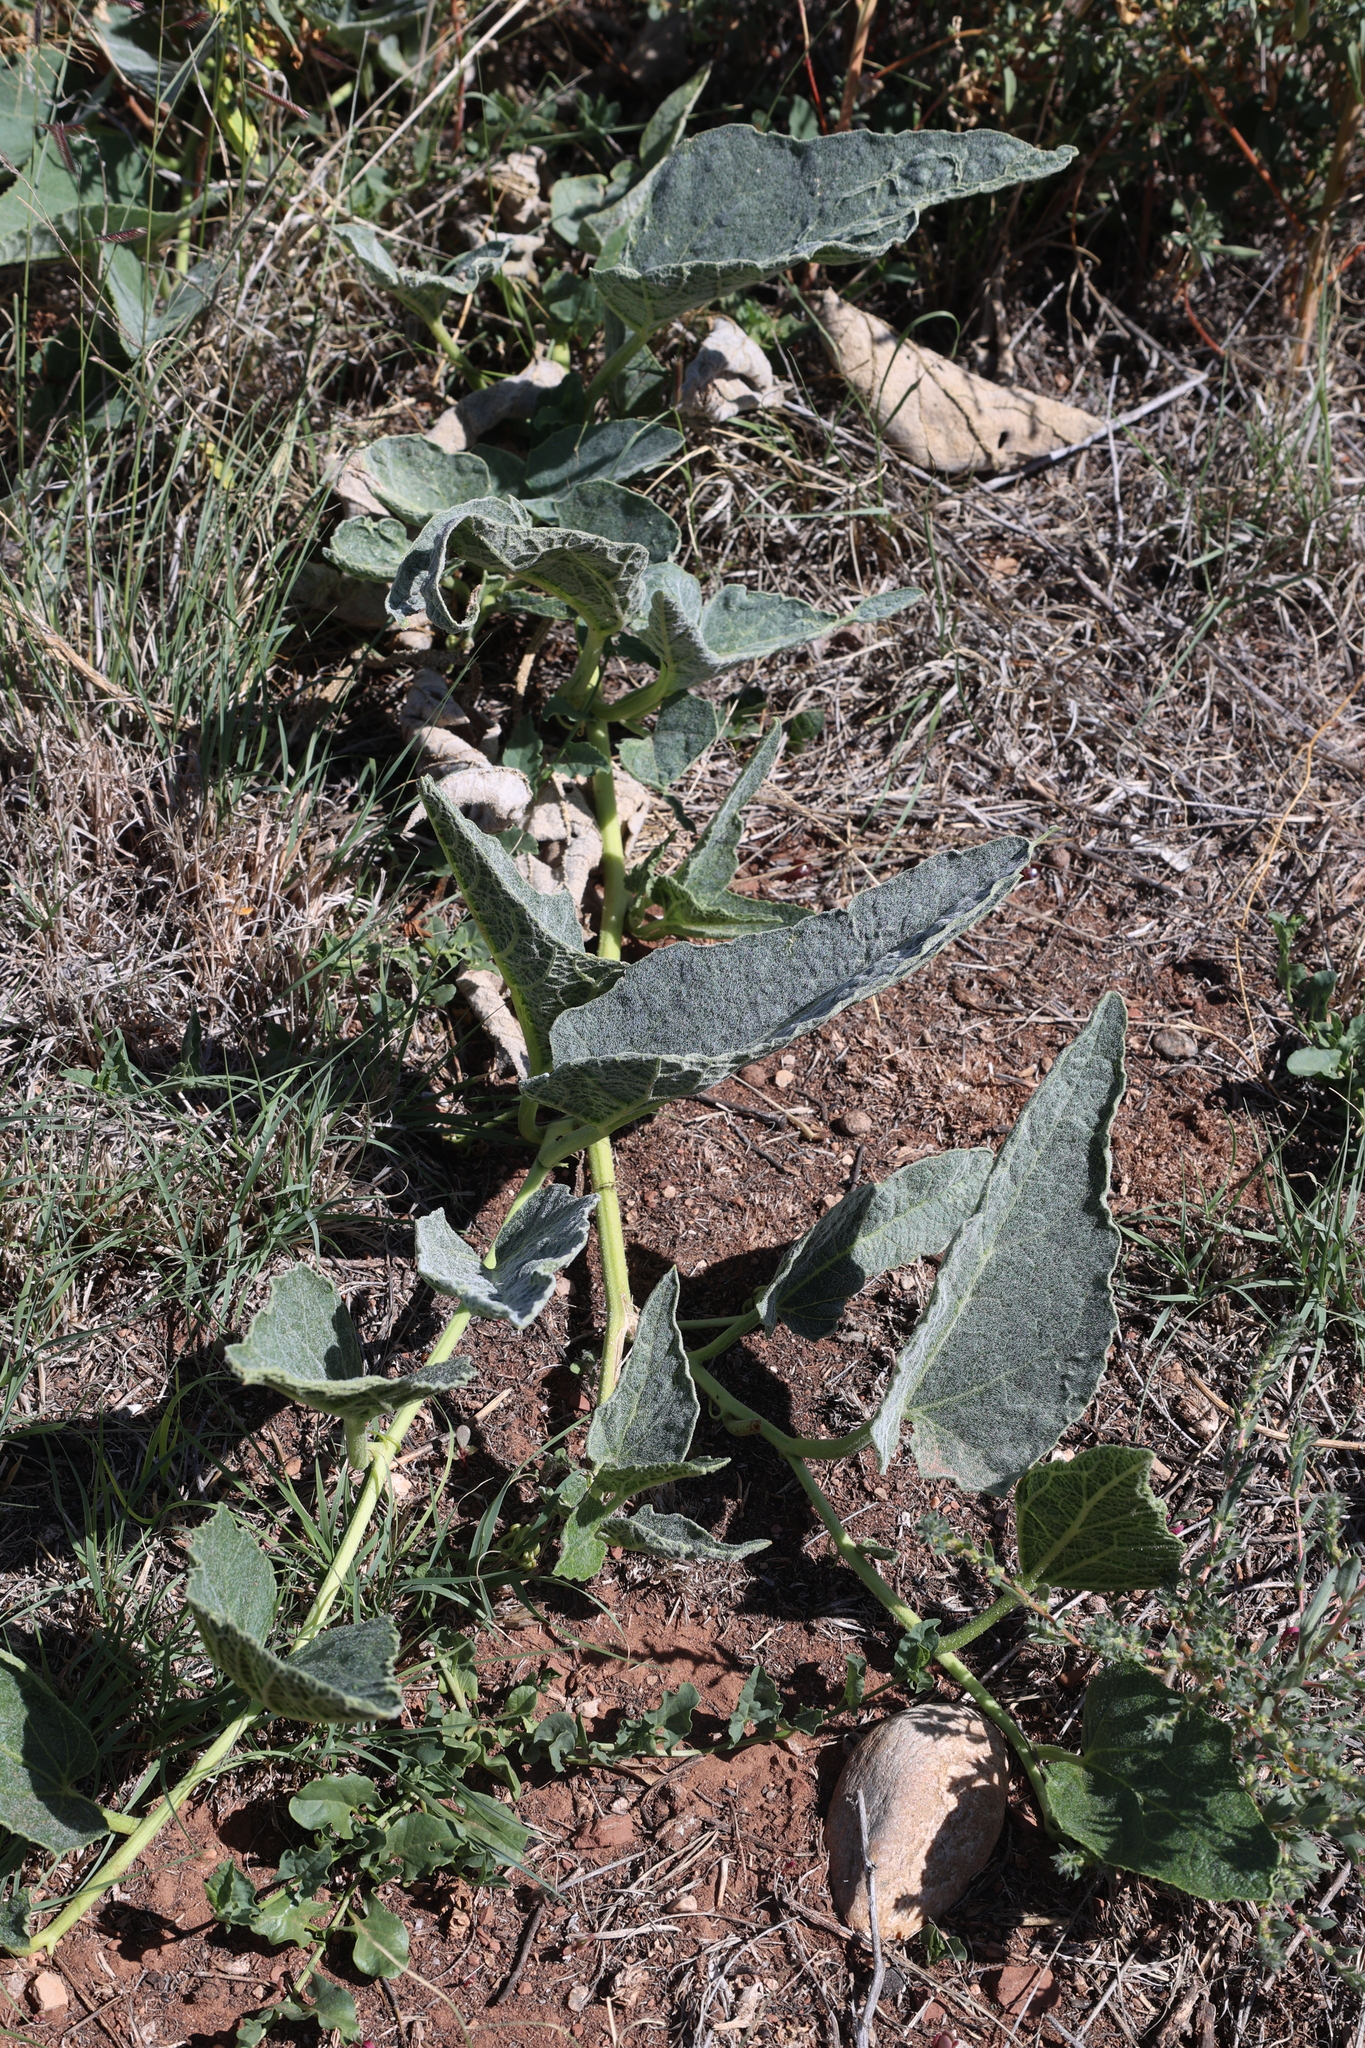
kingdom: Plantae
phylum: Tracheophyta
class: Magnoliopsida
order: Cucurbitales
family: Cucurbitaceae
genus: Cucurbita
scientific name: Cucurbita foetidissima
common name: Buffalo gourd
